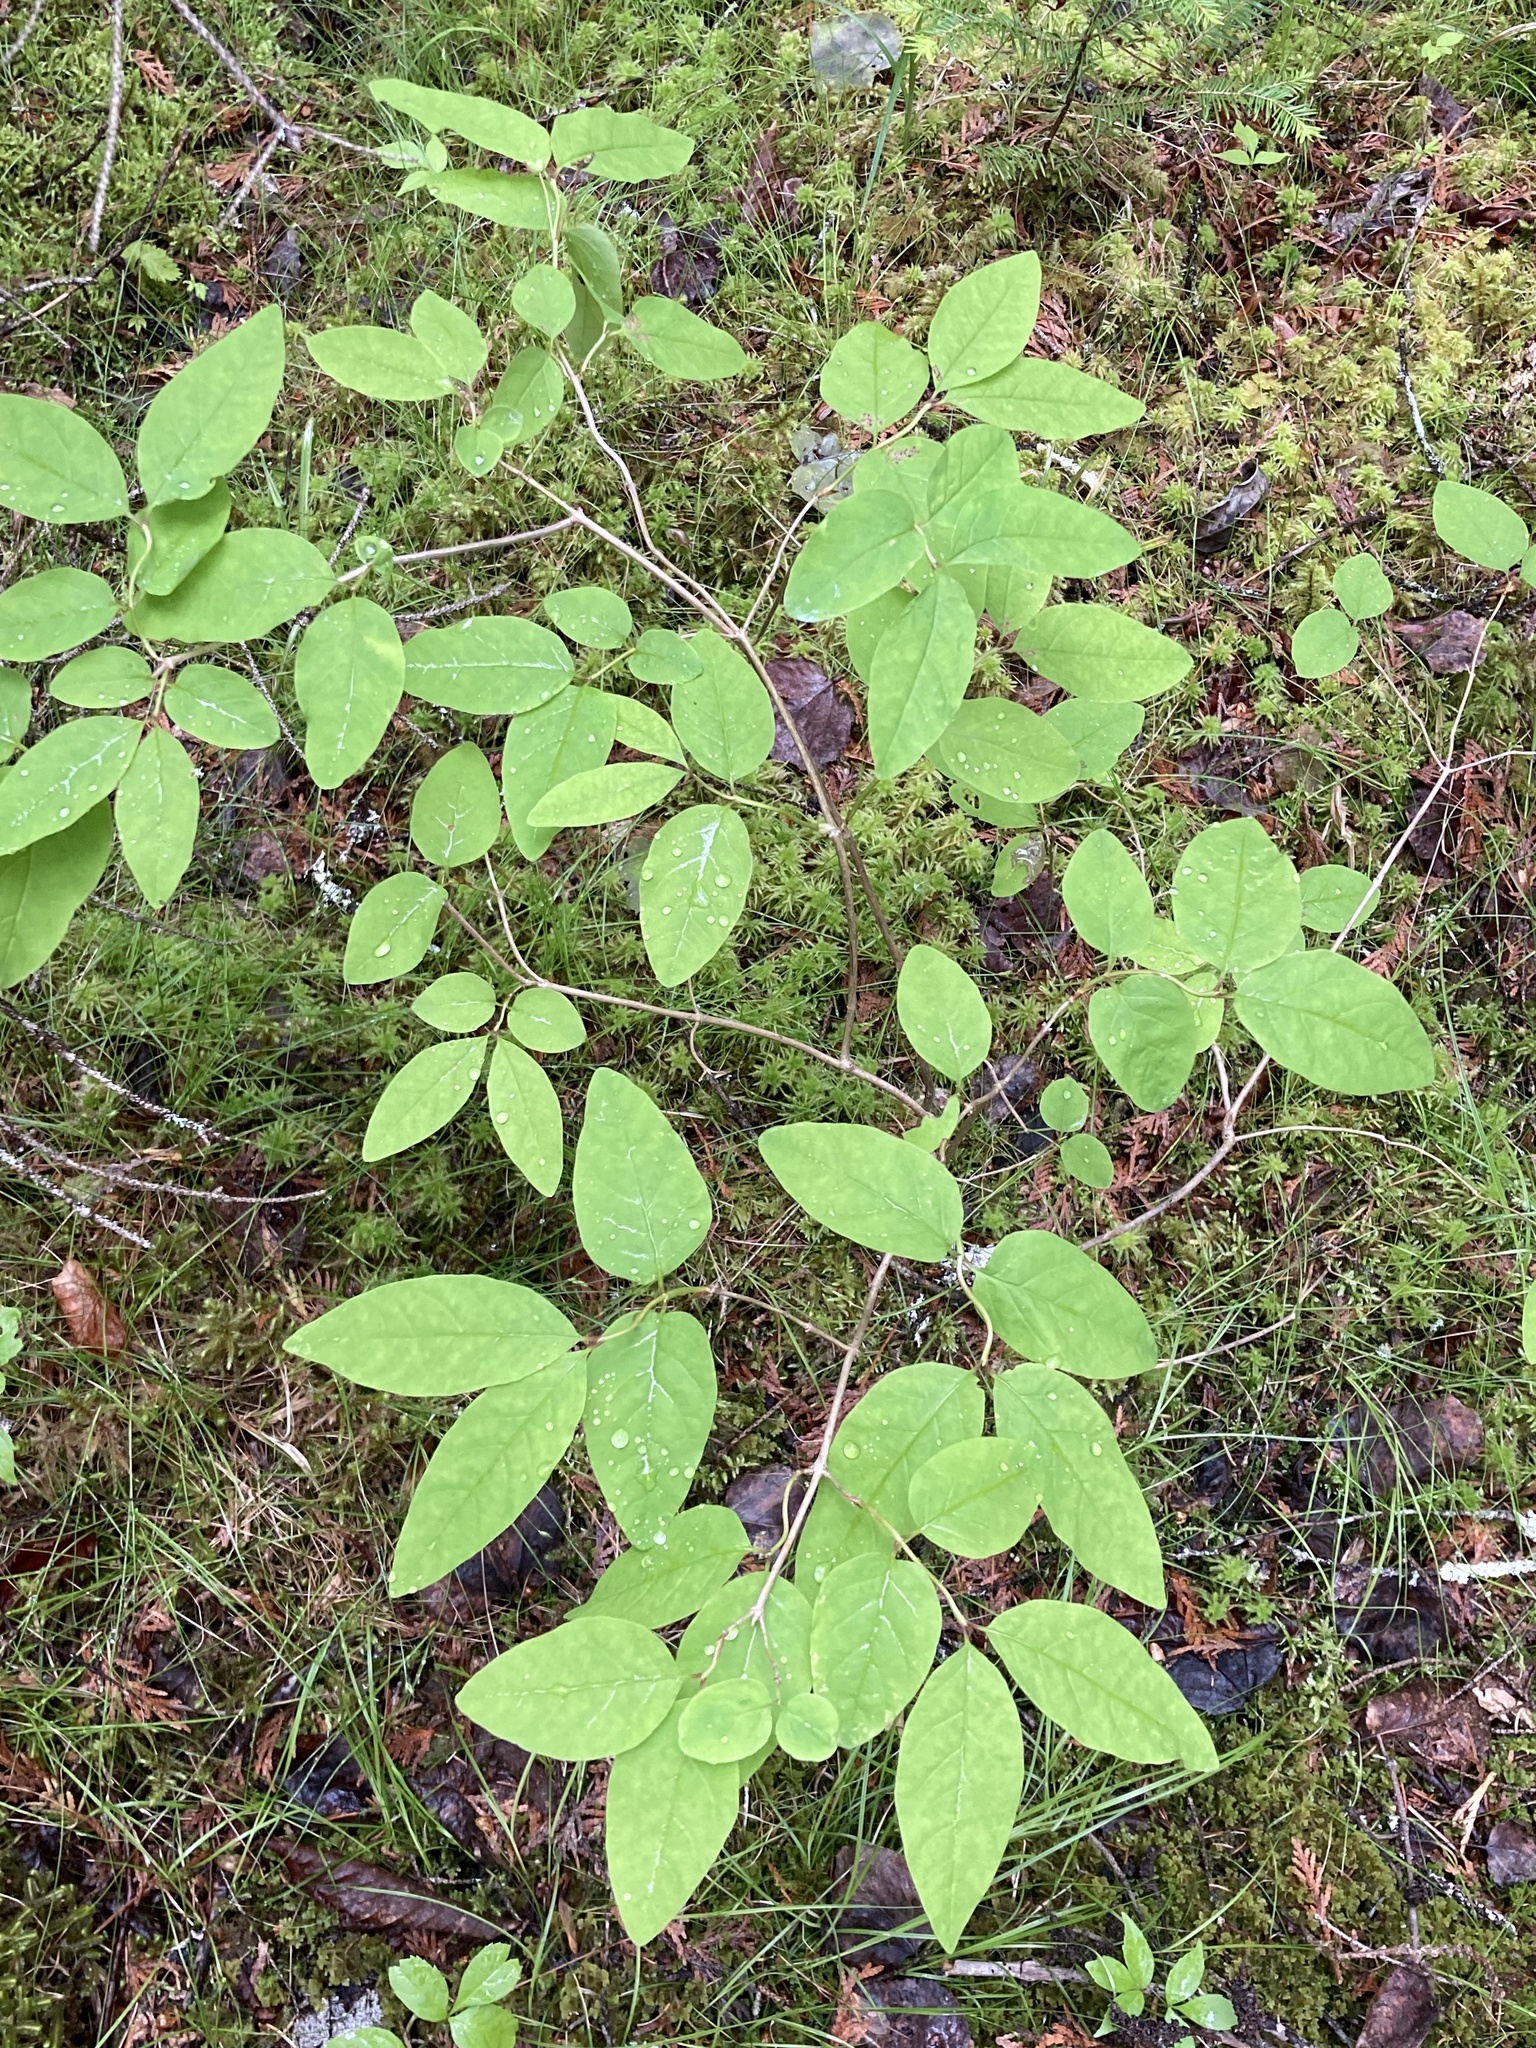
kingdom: Plantae
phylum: Tracheophyta
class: Magnoliopsida
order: Dipsacales
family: Caprifoliaceae
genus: Lonicera
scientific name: Lonicera canadensis
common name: American fly-honeysuckle
